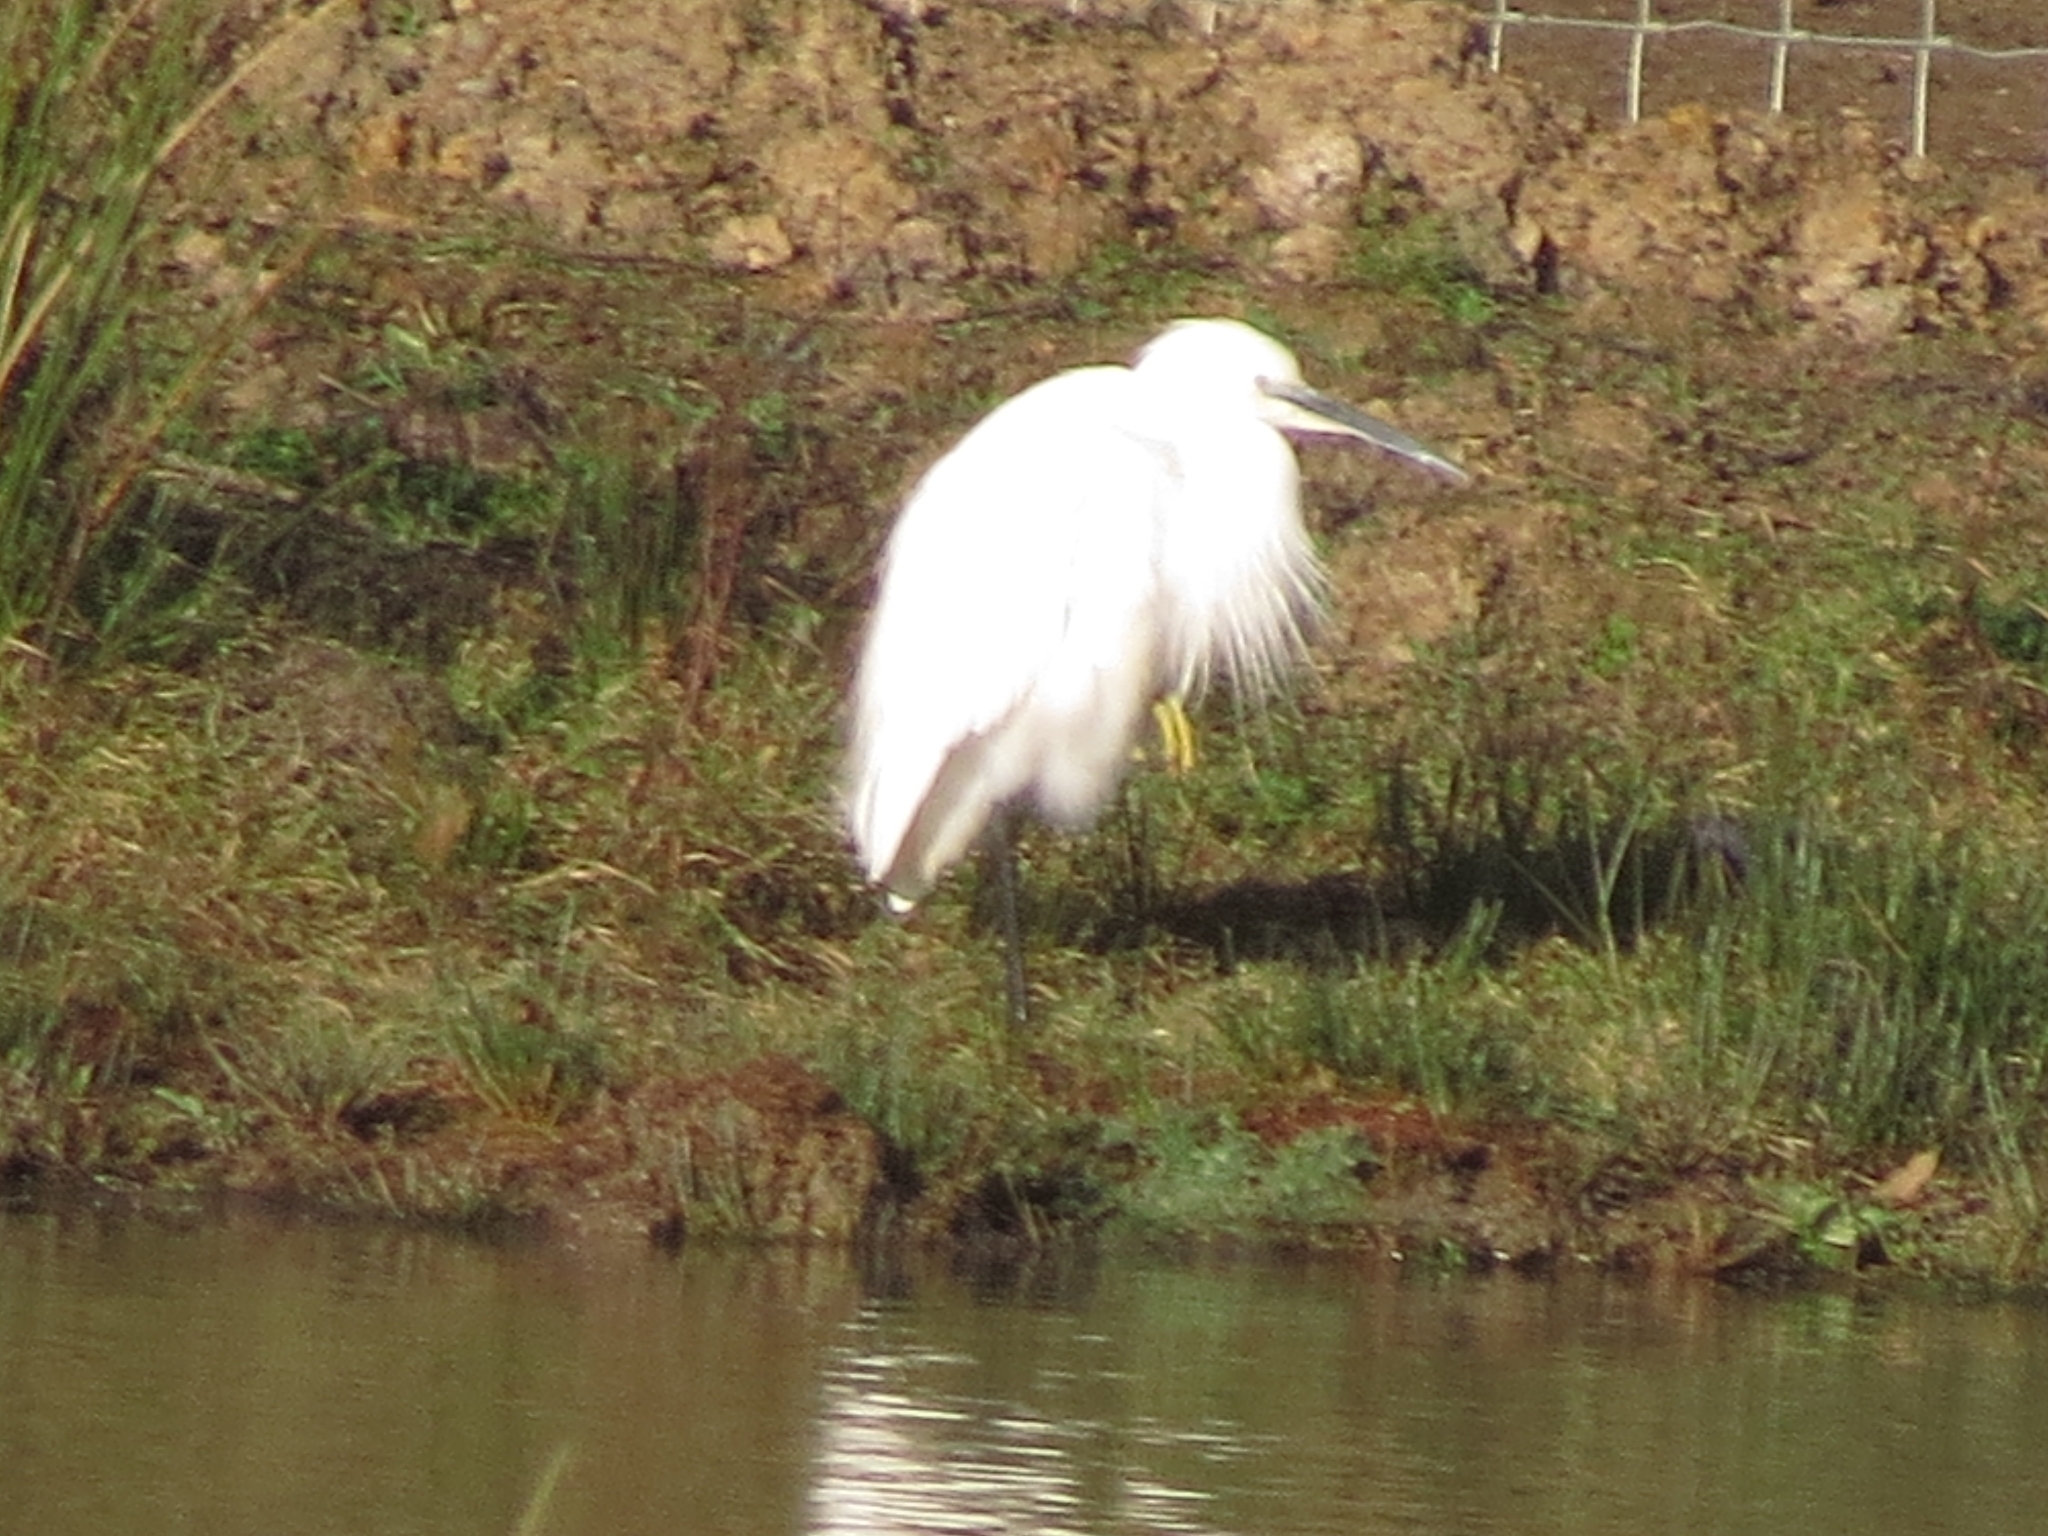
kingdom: Animalia
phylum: Chordata
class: Aves
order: Pelecaniformes
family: Ardeidae
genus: Egretta
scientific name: Egretta garzetta
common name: Little egret
